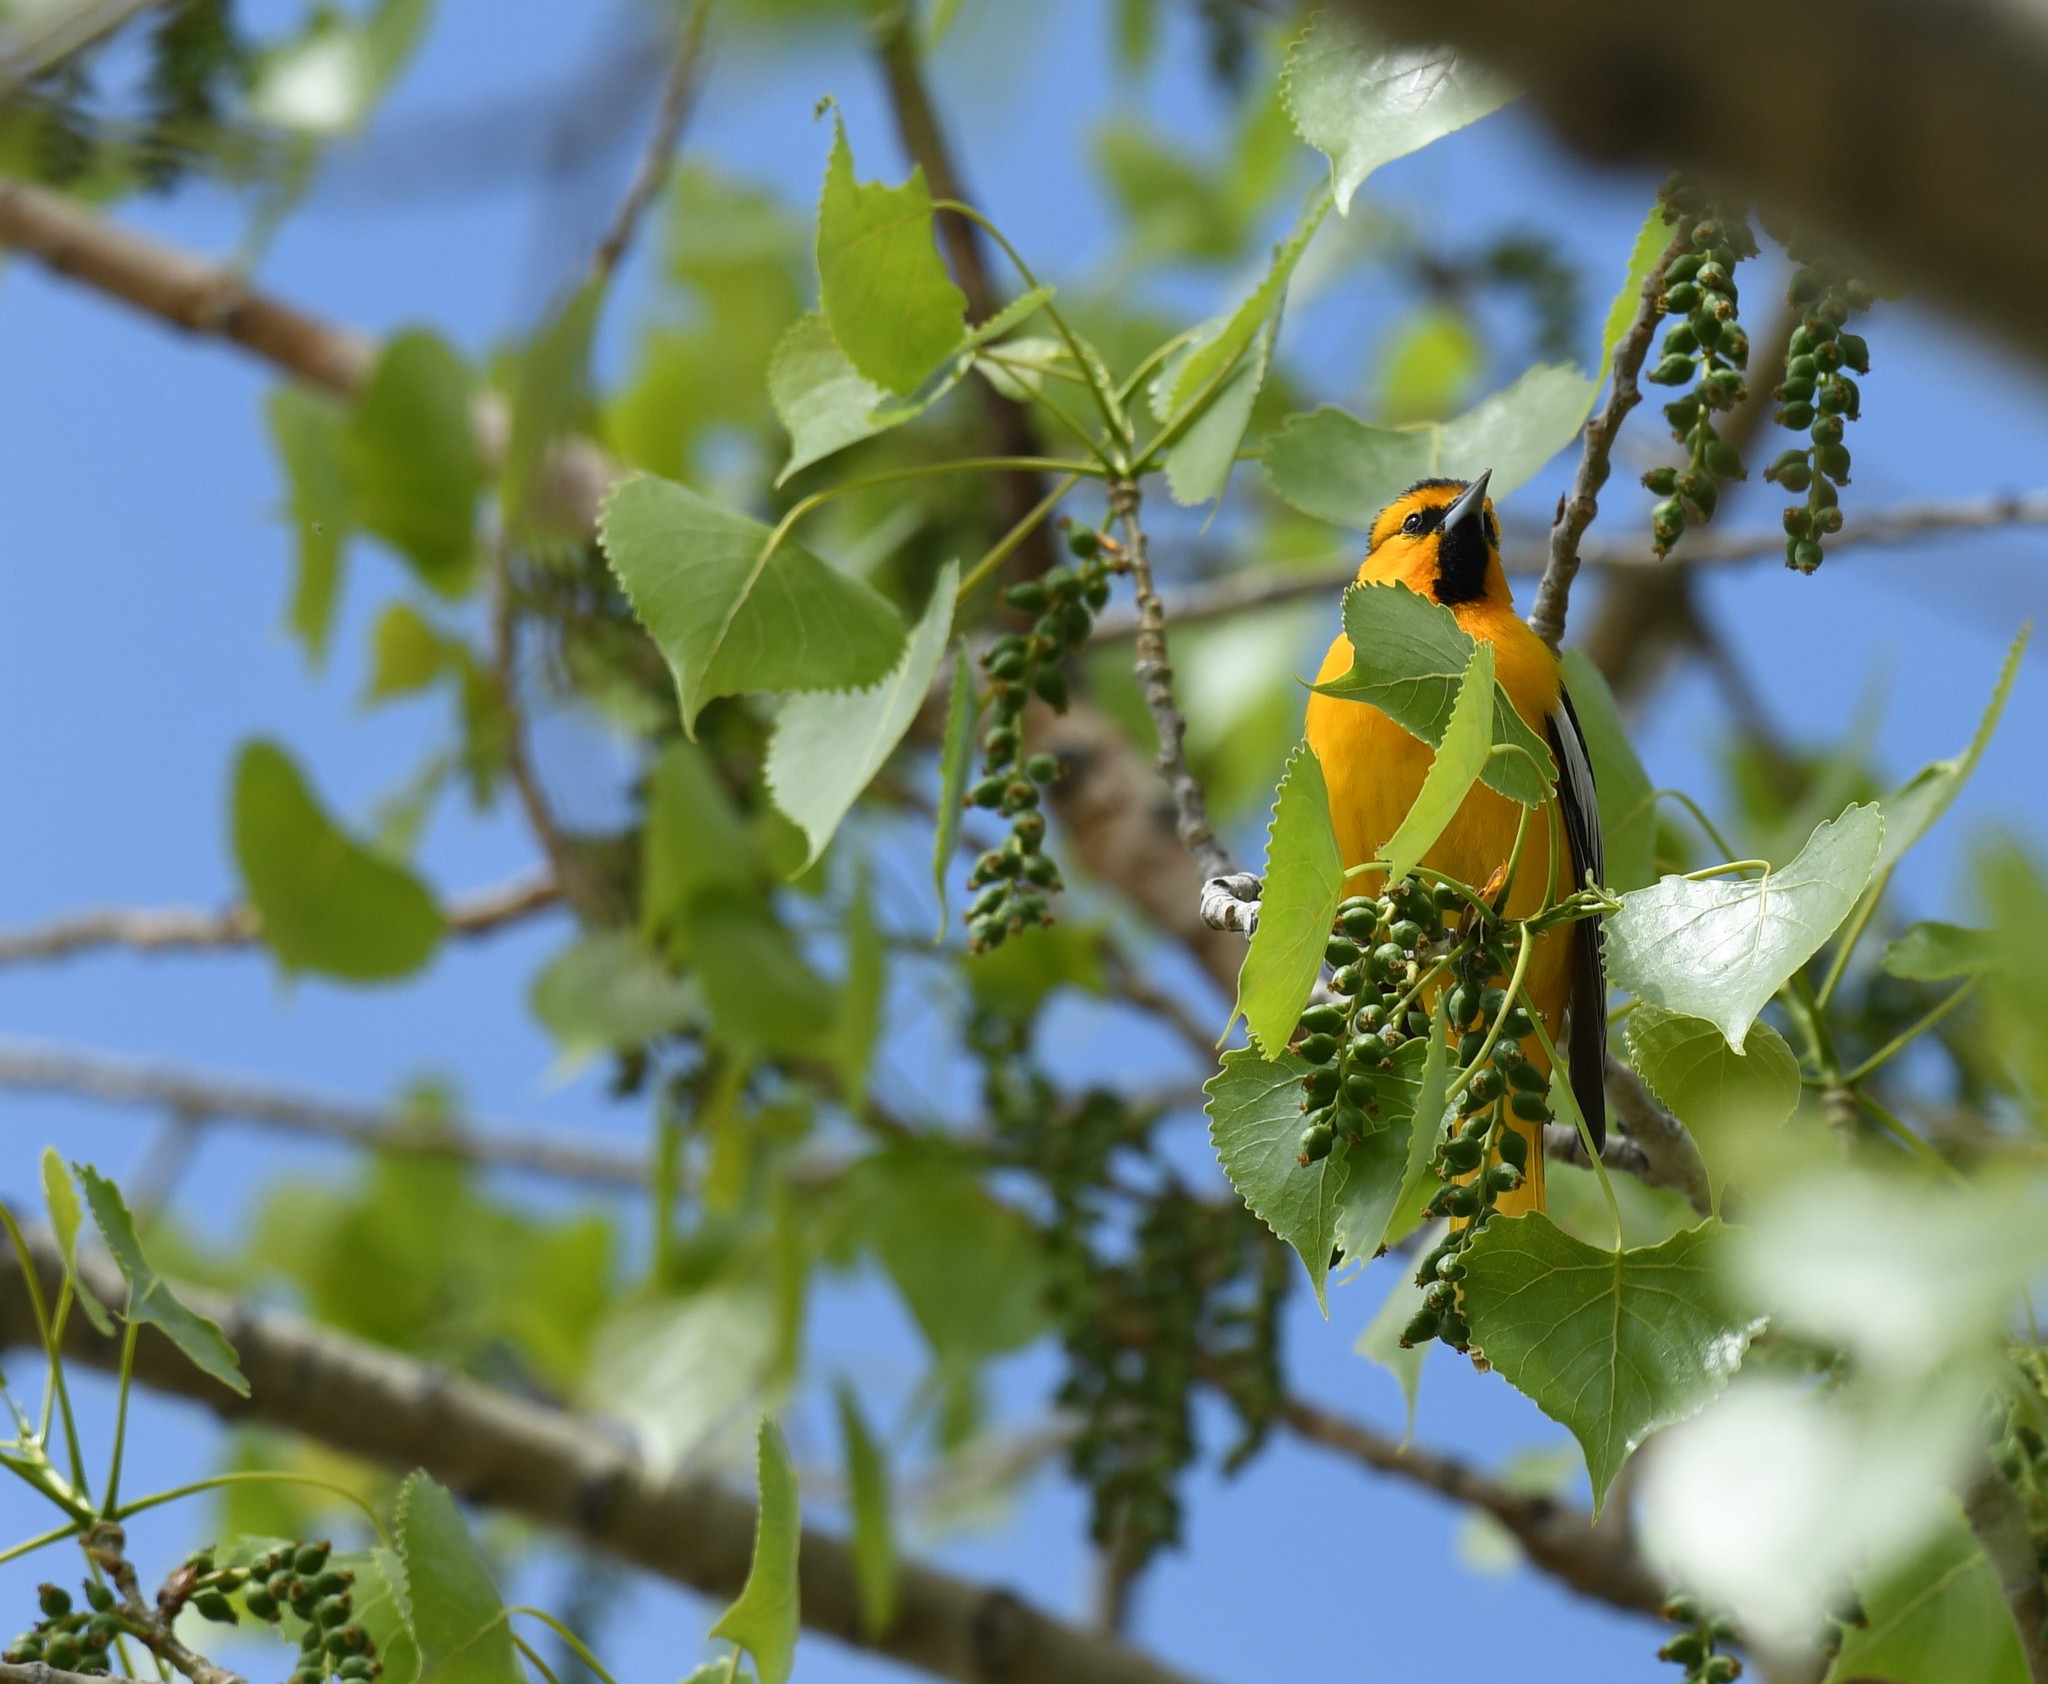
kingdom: Animalia
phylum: Chordata
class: Aves
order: Passeriformes
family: Icteridae
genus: Icterus
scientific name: Icterus bullockii
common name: Bullock's oriole
